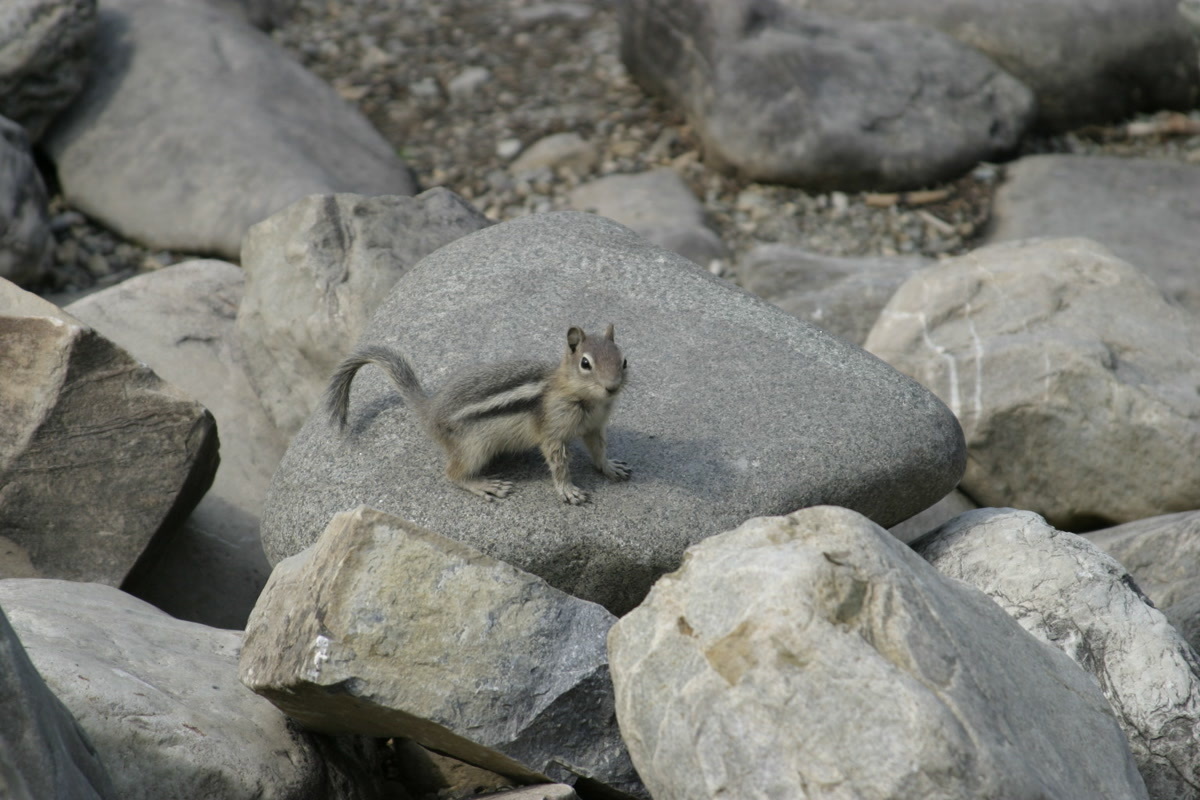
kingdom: Animalia
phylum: Chordata
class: Mammalia
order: Rodentia
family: Sciuridae
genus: Callospermophilus
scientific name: Callospermophilus lateralis
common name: Golden-mantled ground squirrel
